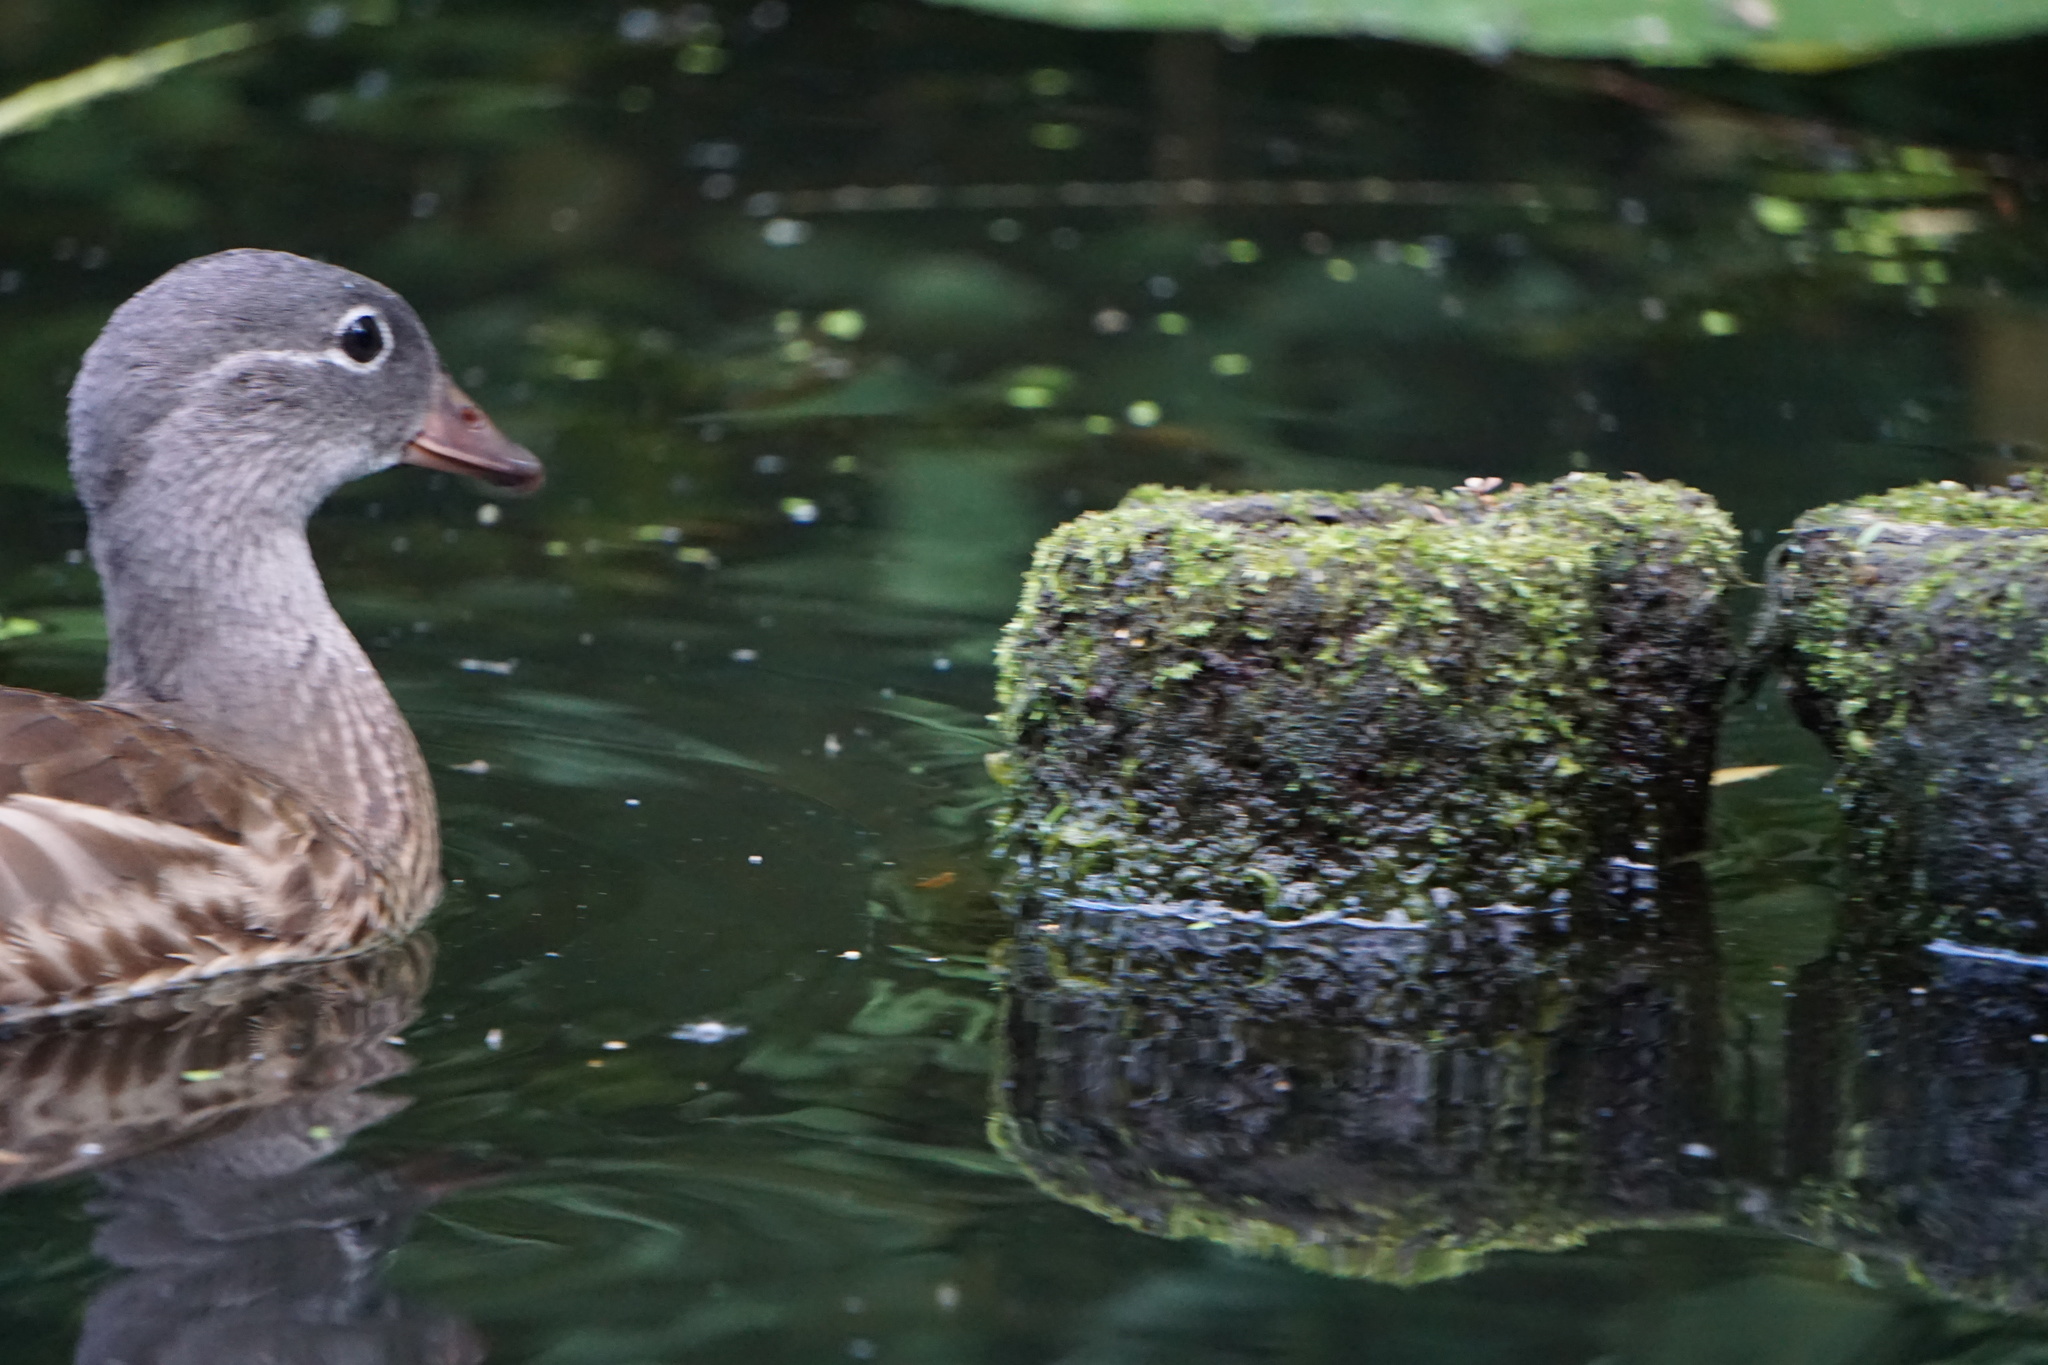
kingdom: Animalia
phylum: Chordata
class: Aves
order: Anseriformes
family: Anatidae
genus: Aix
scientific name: Aix galericulata
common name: Mandarin duck
